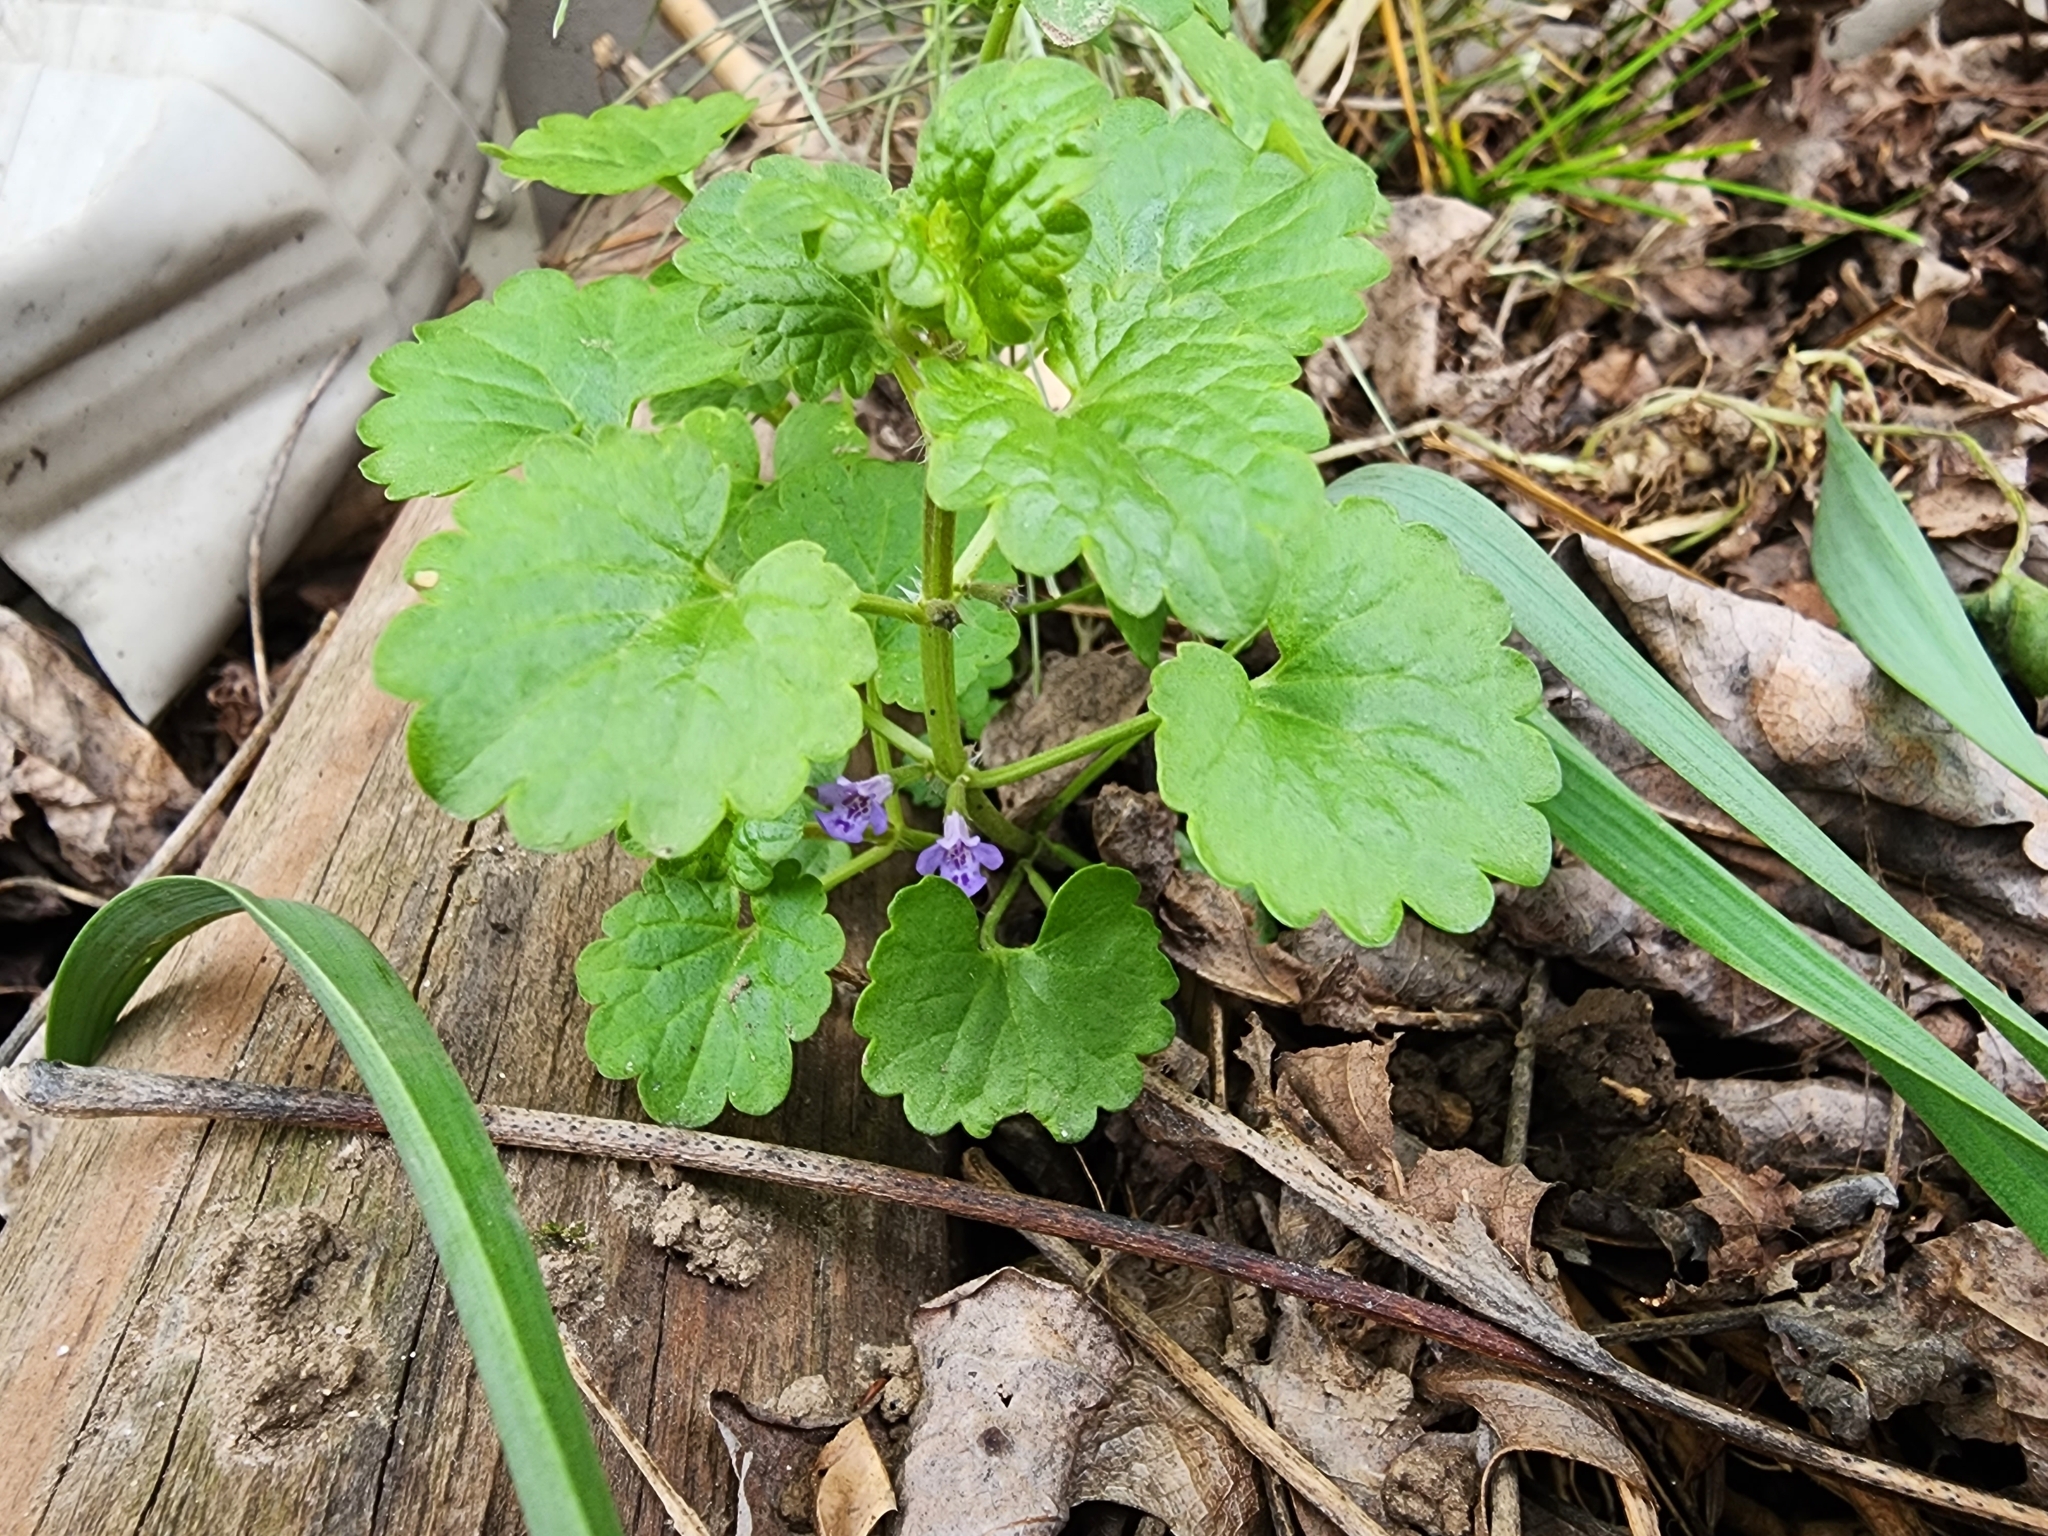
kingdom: Plantae
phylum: Tracheophyta
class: Magnoliopsida
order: Lamiales
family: Lamiaceae
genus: Glechoma
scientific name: Glechoma hederacea
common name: Ground ivy
